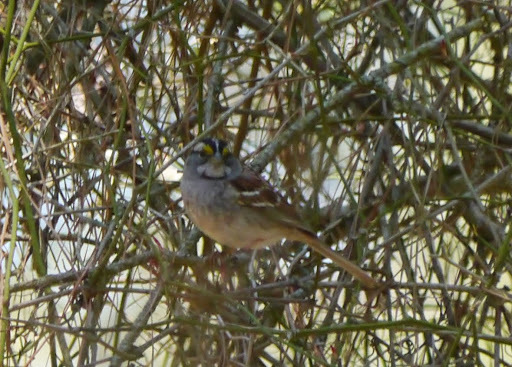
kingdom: Animalia
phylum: Chordata
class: Aves
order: Passeriformes
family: Passerellidae
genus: Zonotrichia
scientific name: Zonotrichia albicollis
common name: White-throated sparrow
